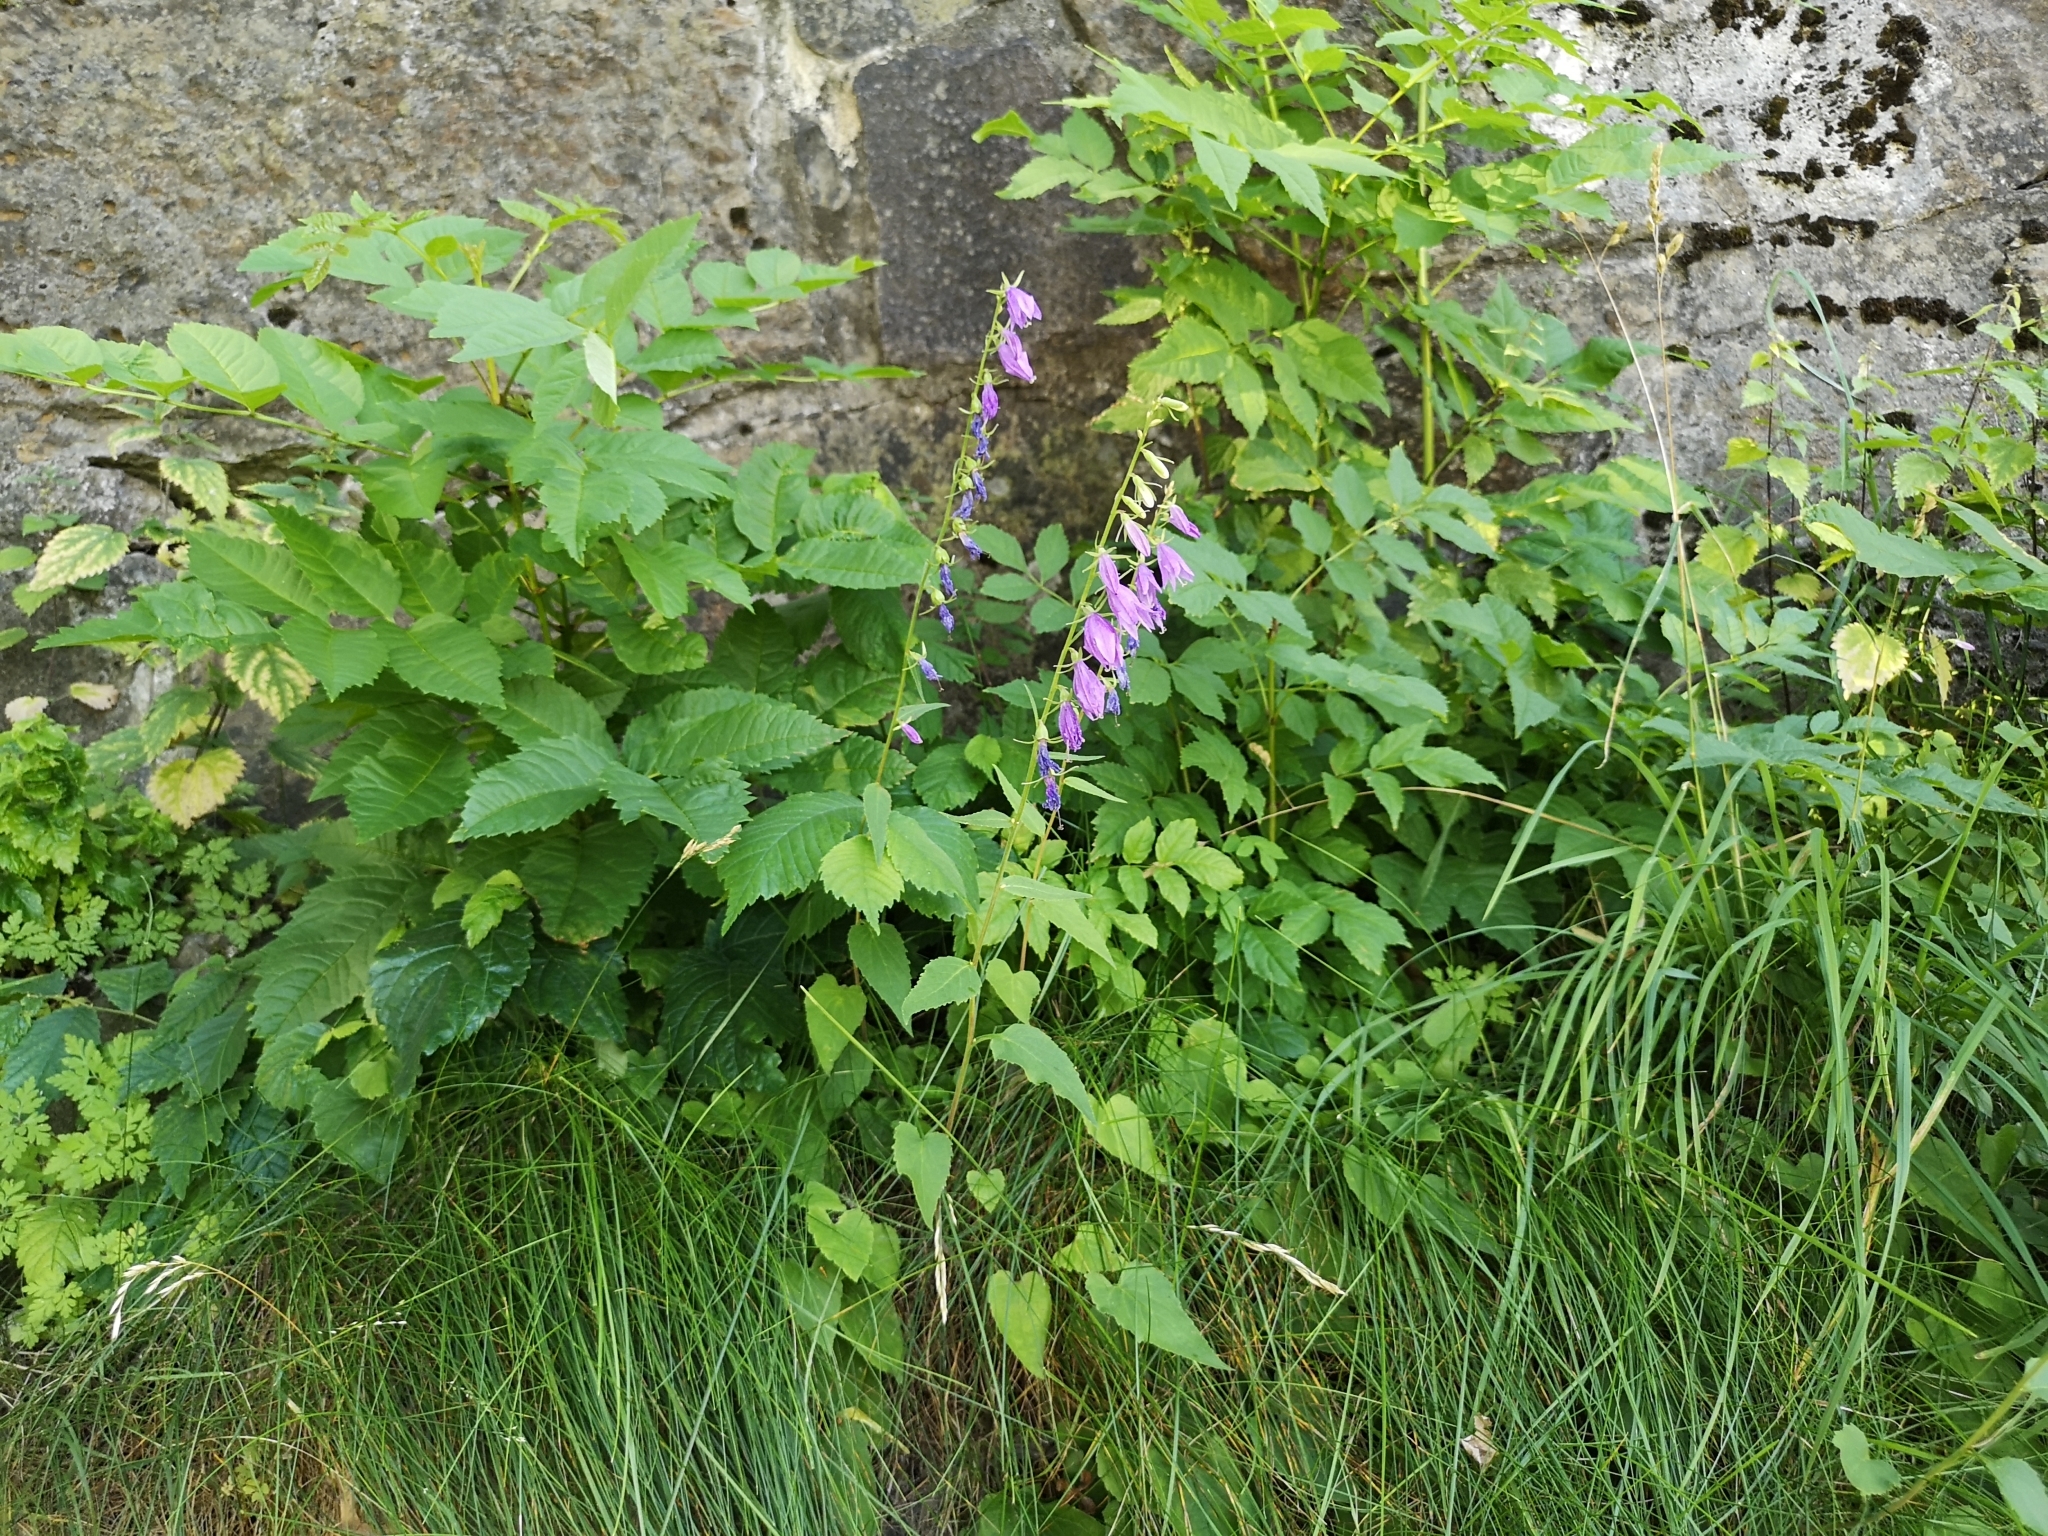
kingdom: Plantae
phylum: Tracheophyta
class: Magnoliopsida
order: Asterales
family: Campanulaceae
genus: Campanula
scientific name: Campanula rapunculoides
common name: Creeping bellflower
